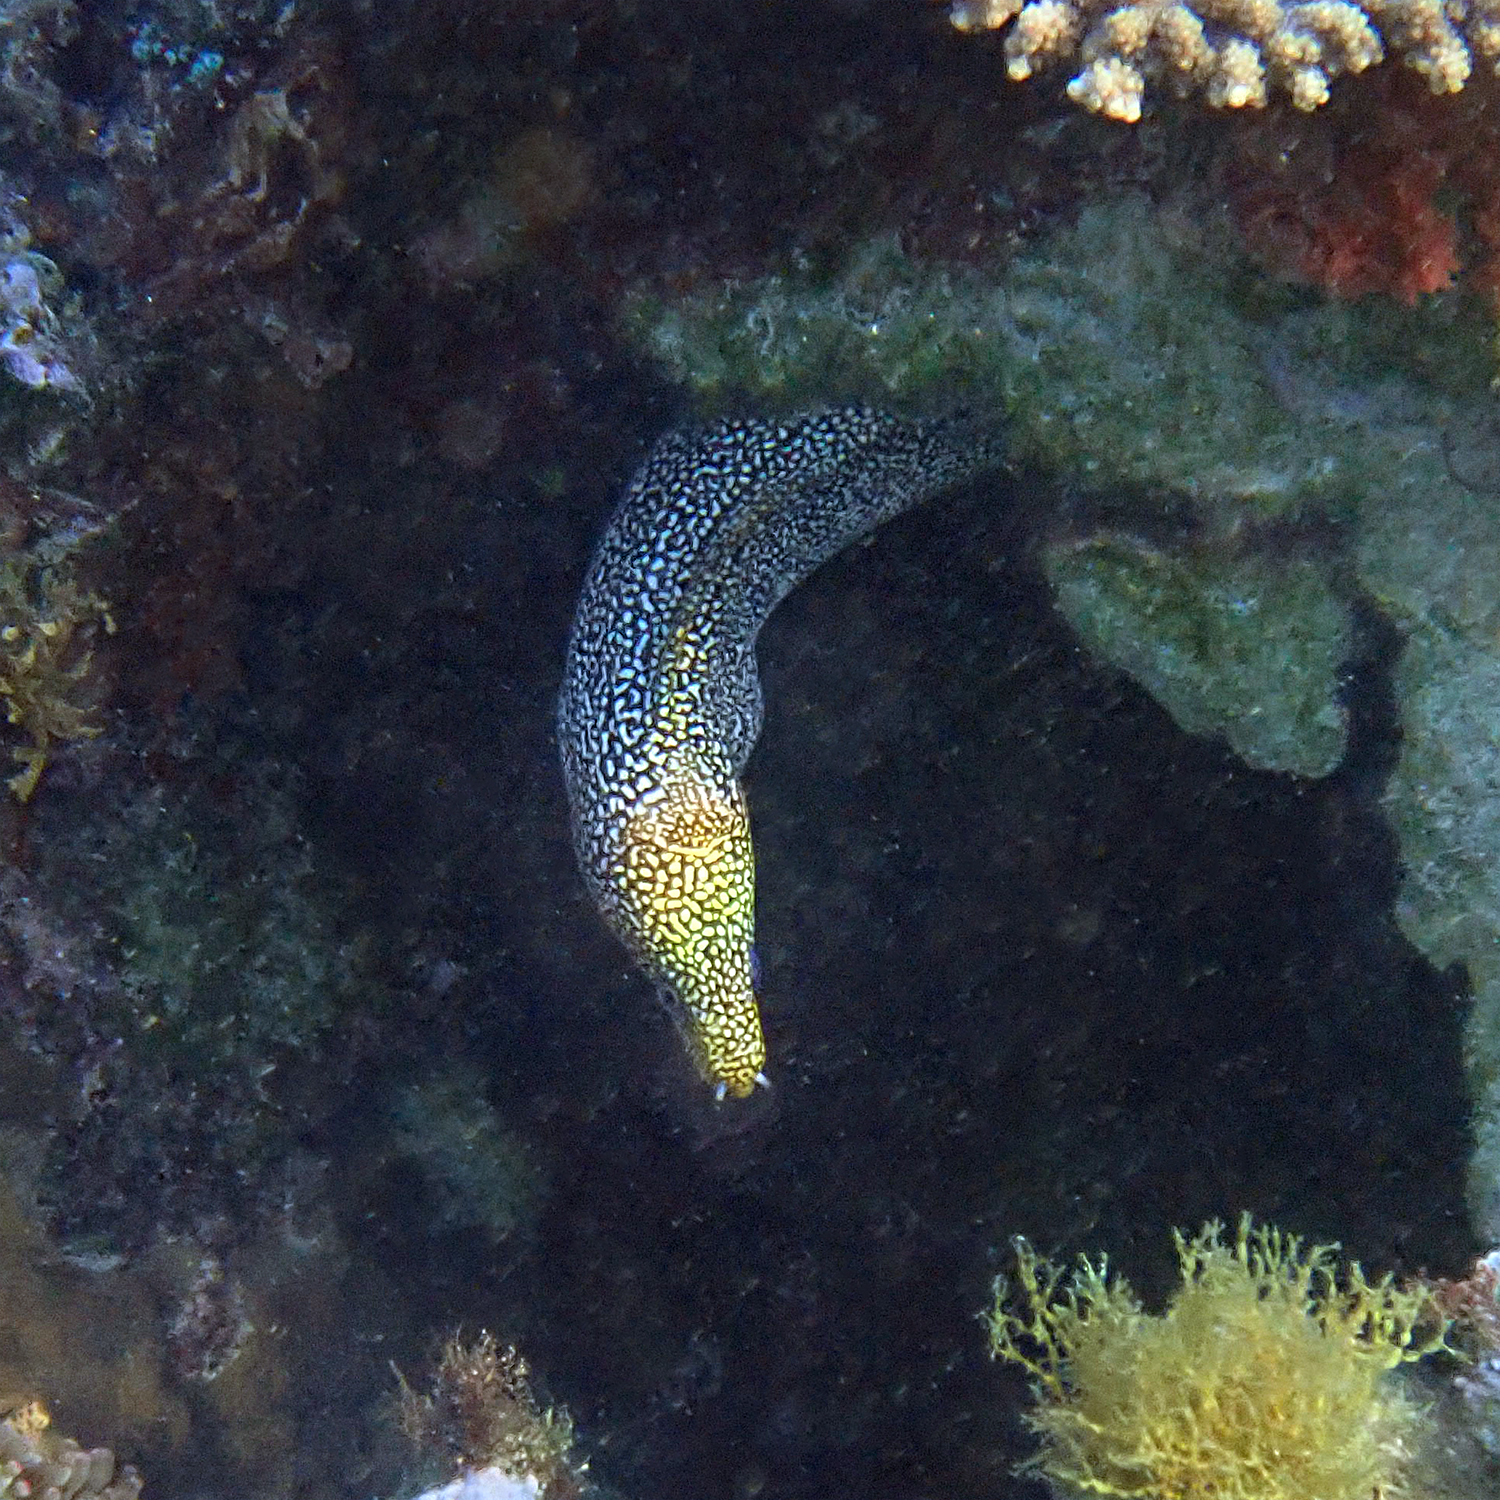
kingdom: Animalia
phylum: Chordata
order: Anguilliformes
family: Muraenidae
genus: Gymnothorax
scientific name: Gymnothorax eurostus
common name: Stout moray
